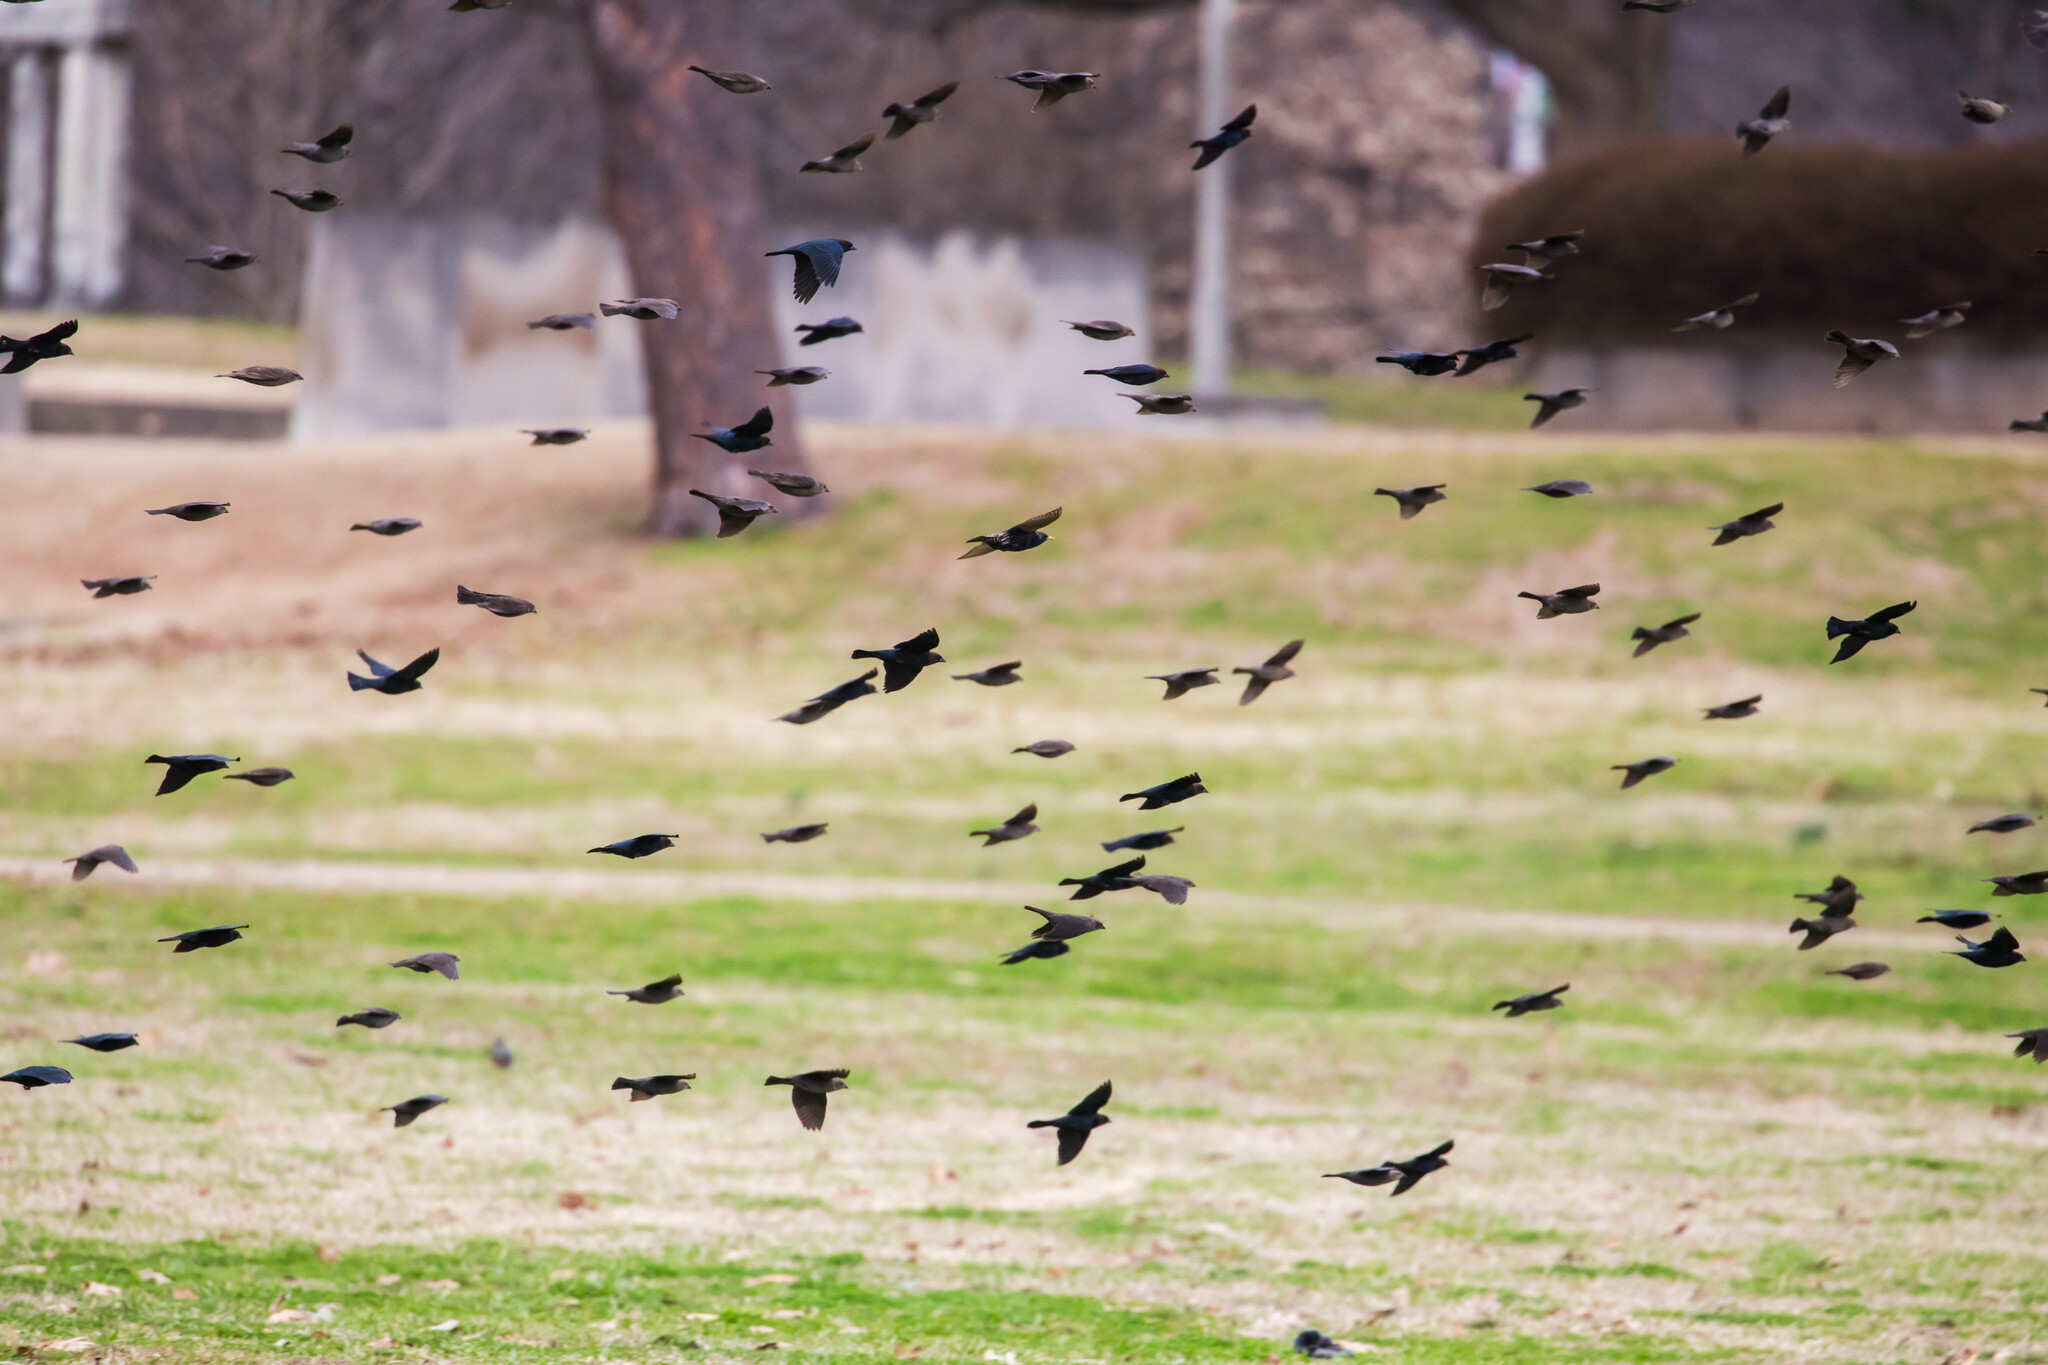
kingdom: Animalia
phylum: Chordata
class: Aves
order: Passeriformes
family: Icteridae
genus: Molothrus
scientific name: Molothrus ater
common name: Brown-headed cowbird
